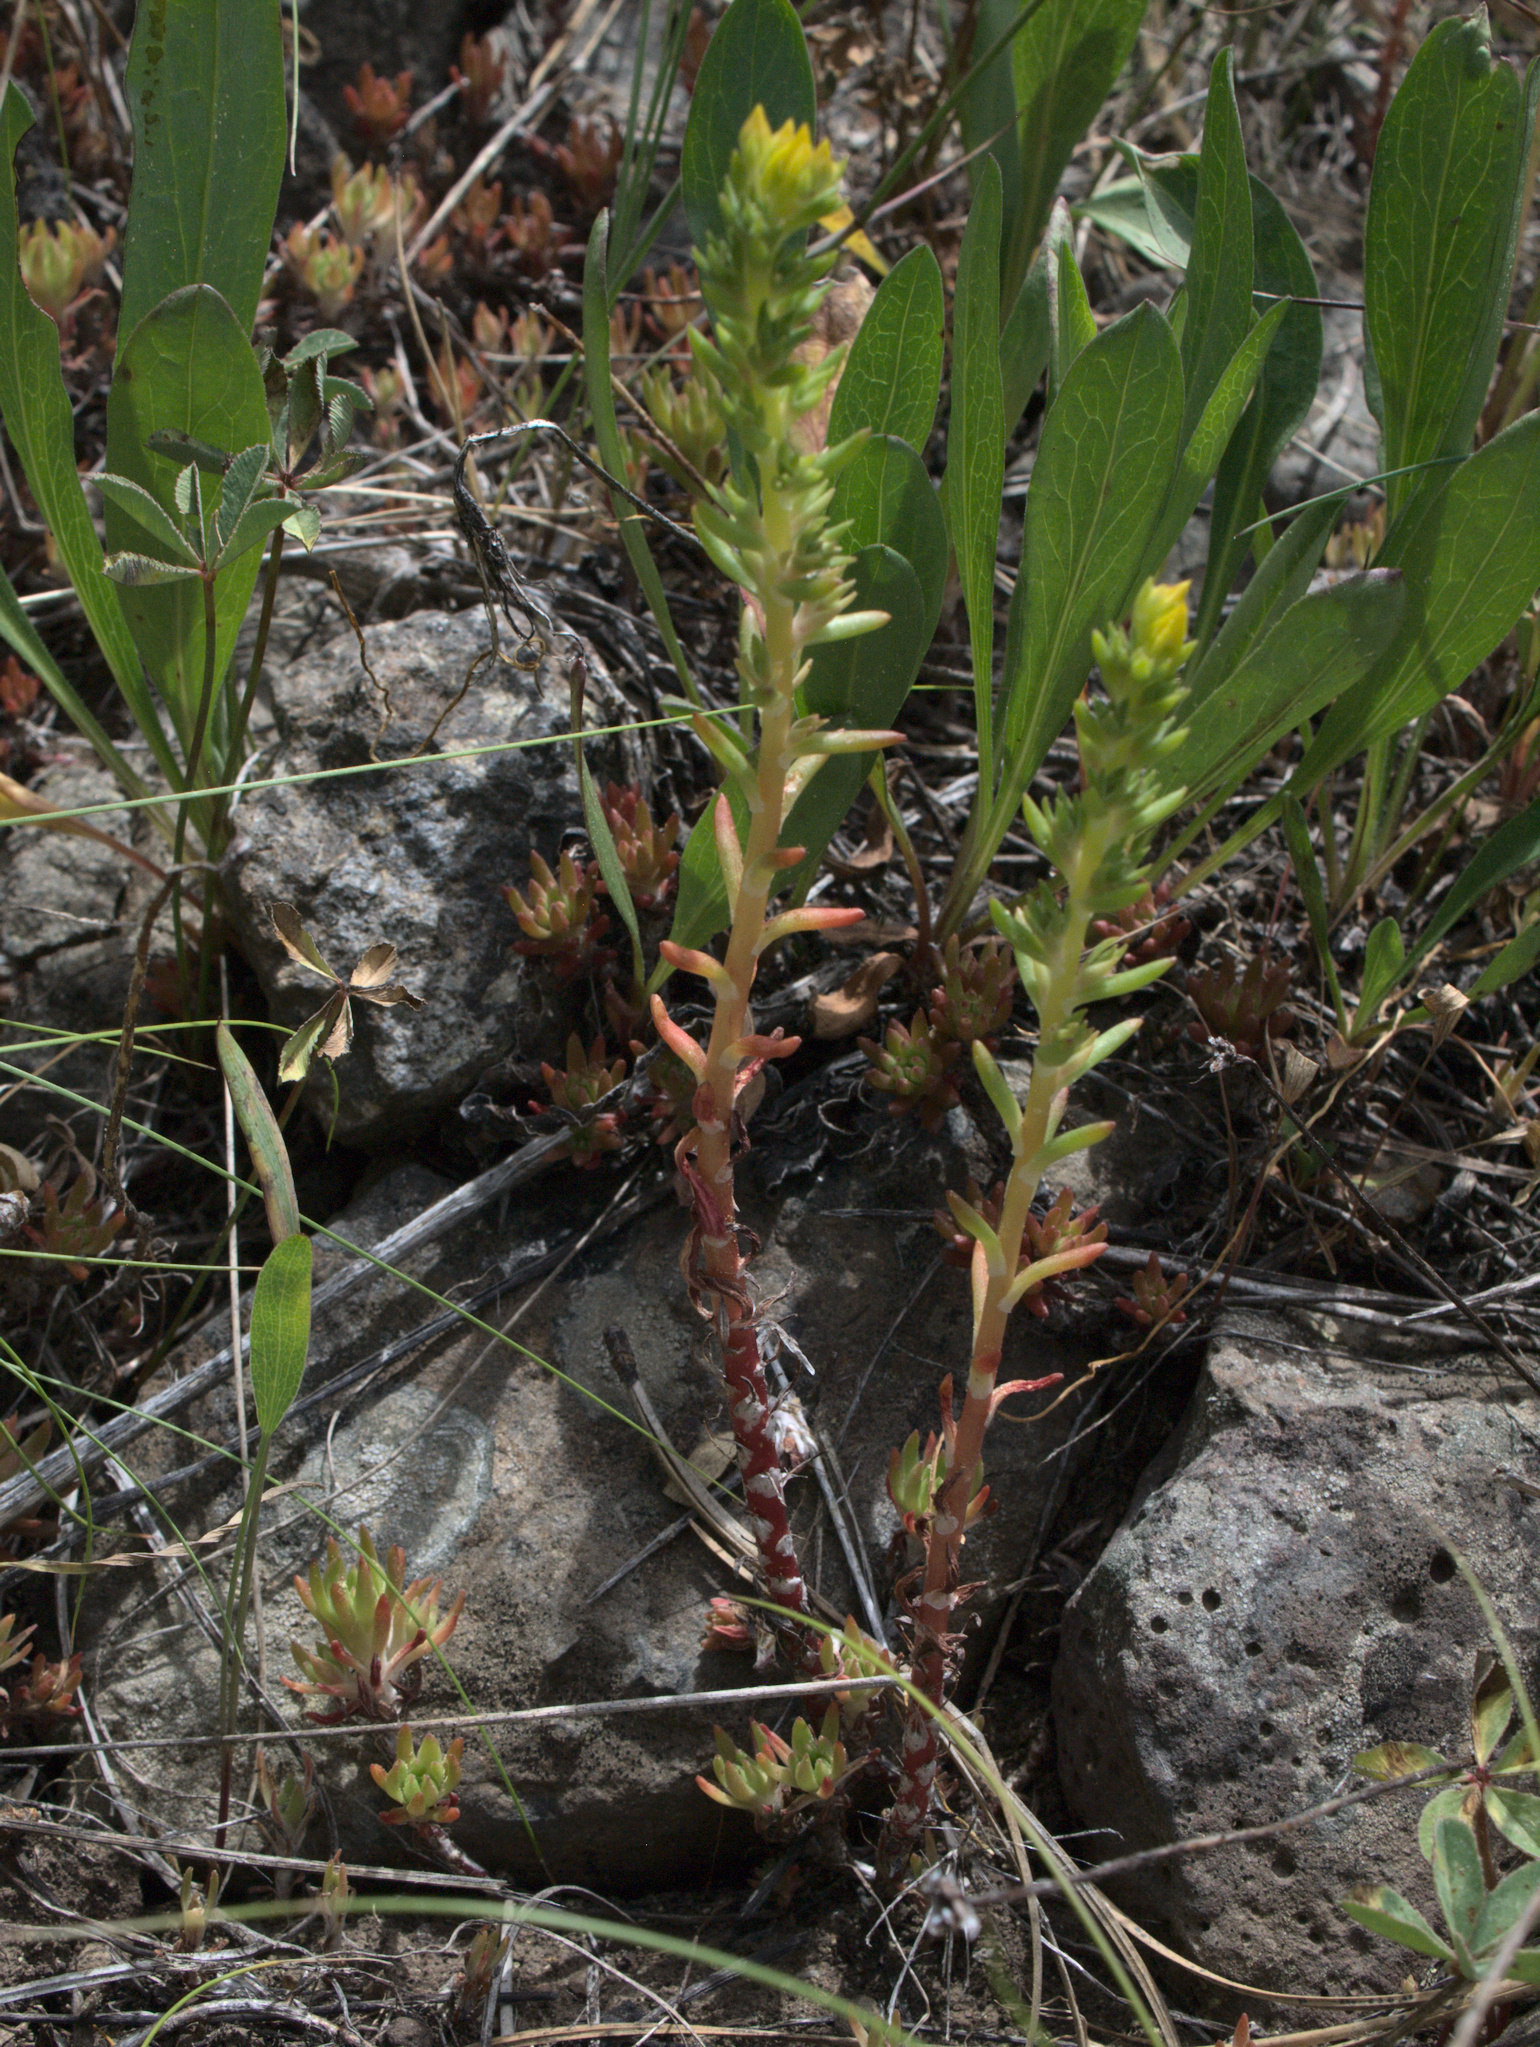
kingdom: Plantae
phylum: Tracheophyta
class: Magnoliopsida
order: Saxifragales
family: Crassulaceae
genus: Sedum
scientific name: Sedum stenopetalum
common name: Narrow-petaled stonecrop
